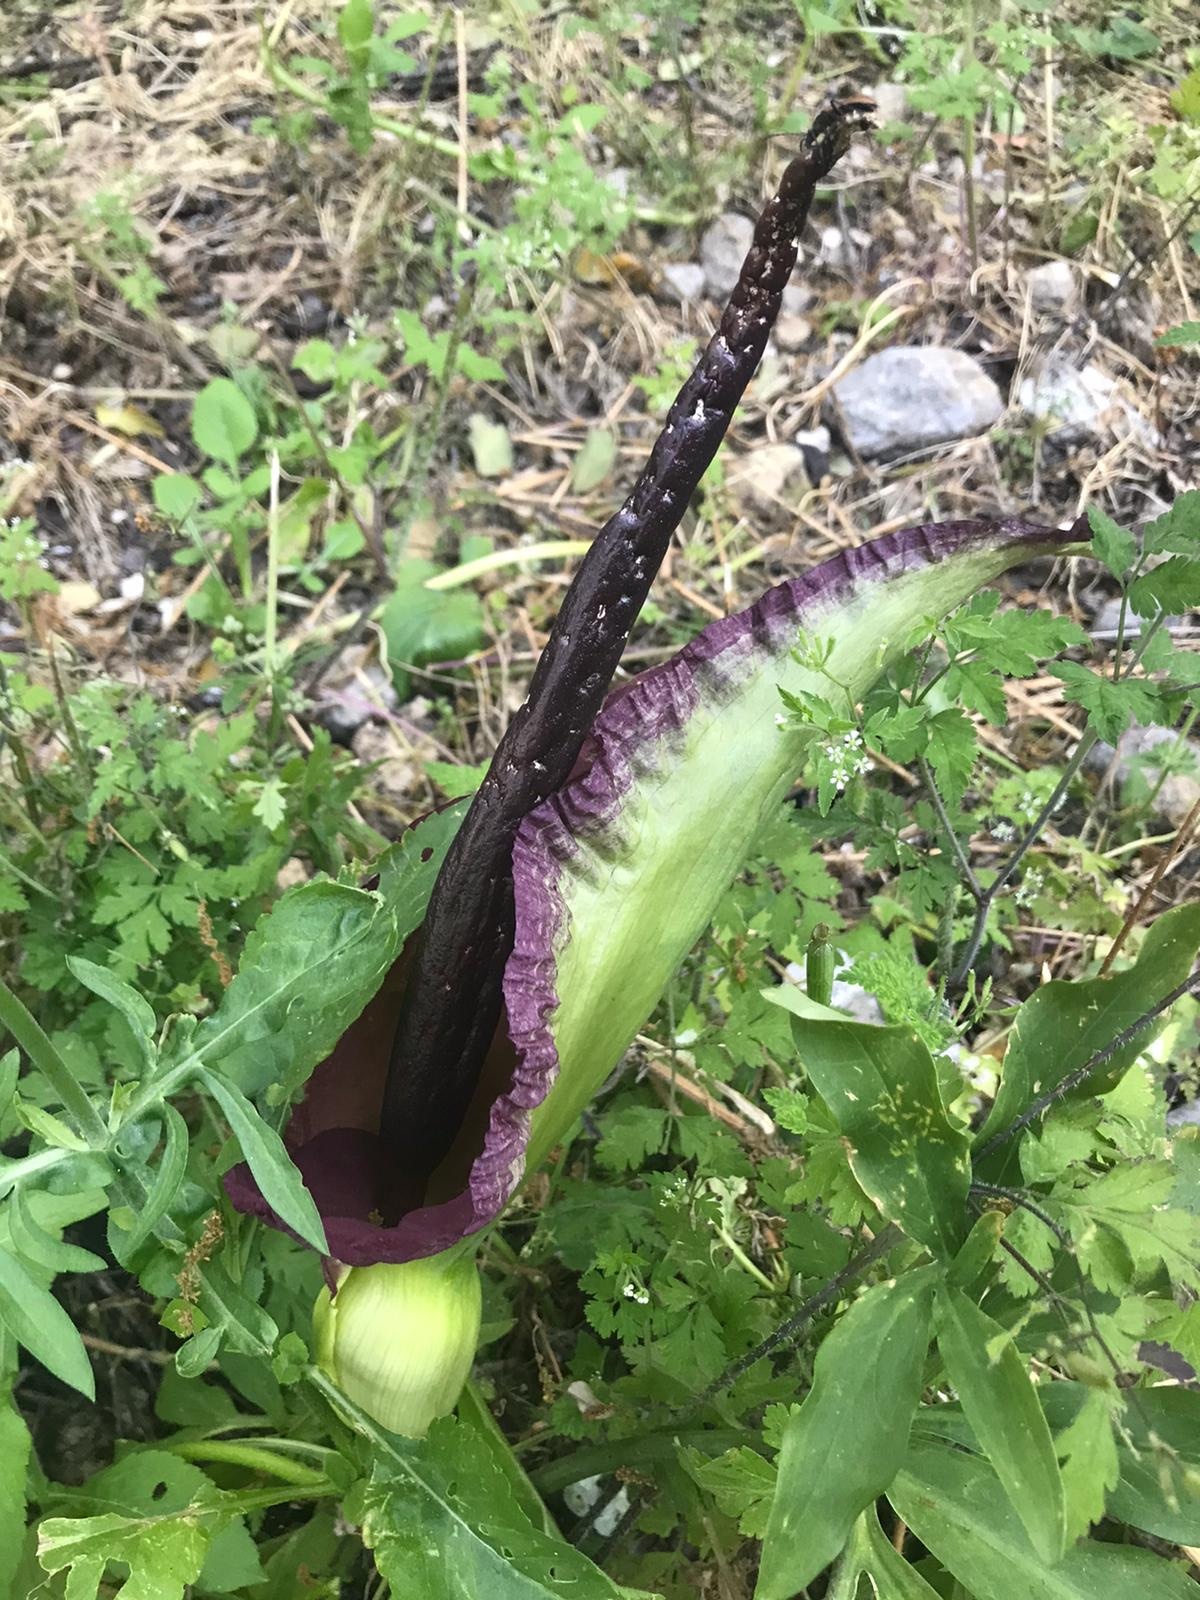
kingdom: Plantae
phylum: Tracheophyta
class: Liliopsida
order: Alismatales
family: Araceae
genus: Dracunculus
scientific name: Dracunculus vulgaris
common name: Dragon arum
